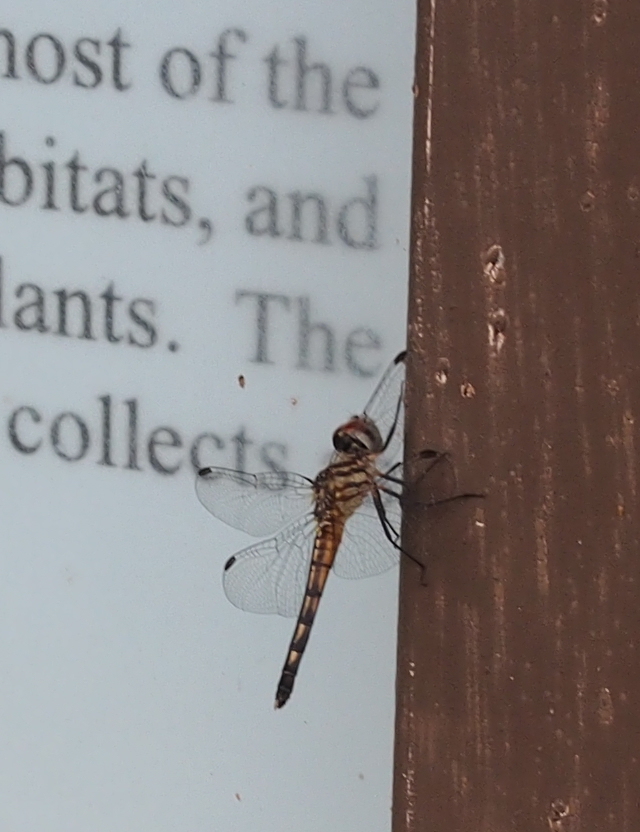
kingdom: Animalia
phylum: Arthropoda
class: Insecta
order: Odonata
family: Libellulidae
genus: Pachydiplax
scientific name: Pachydiplax longipennis
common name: Blue dasher
